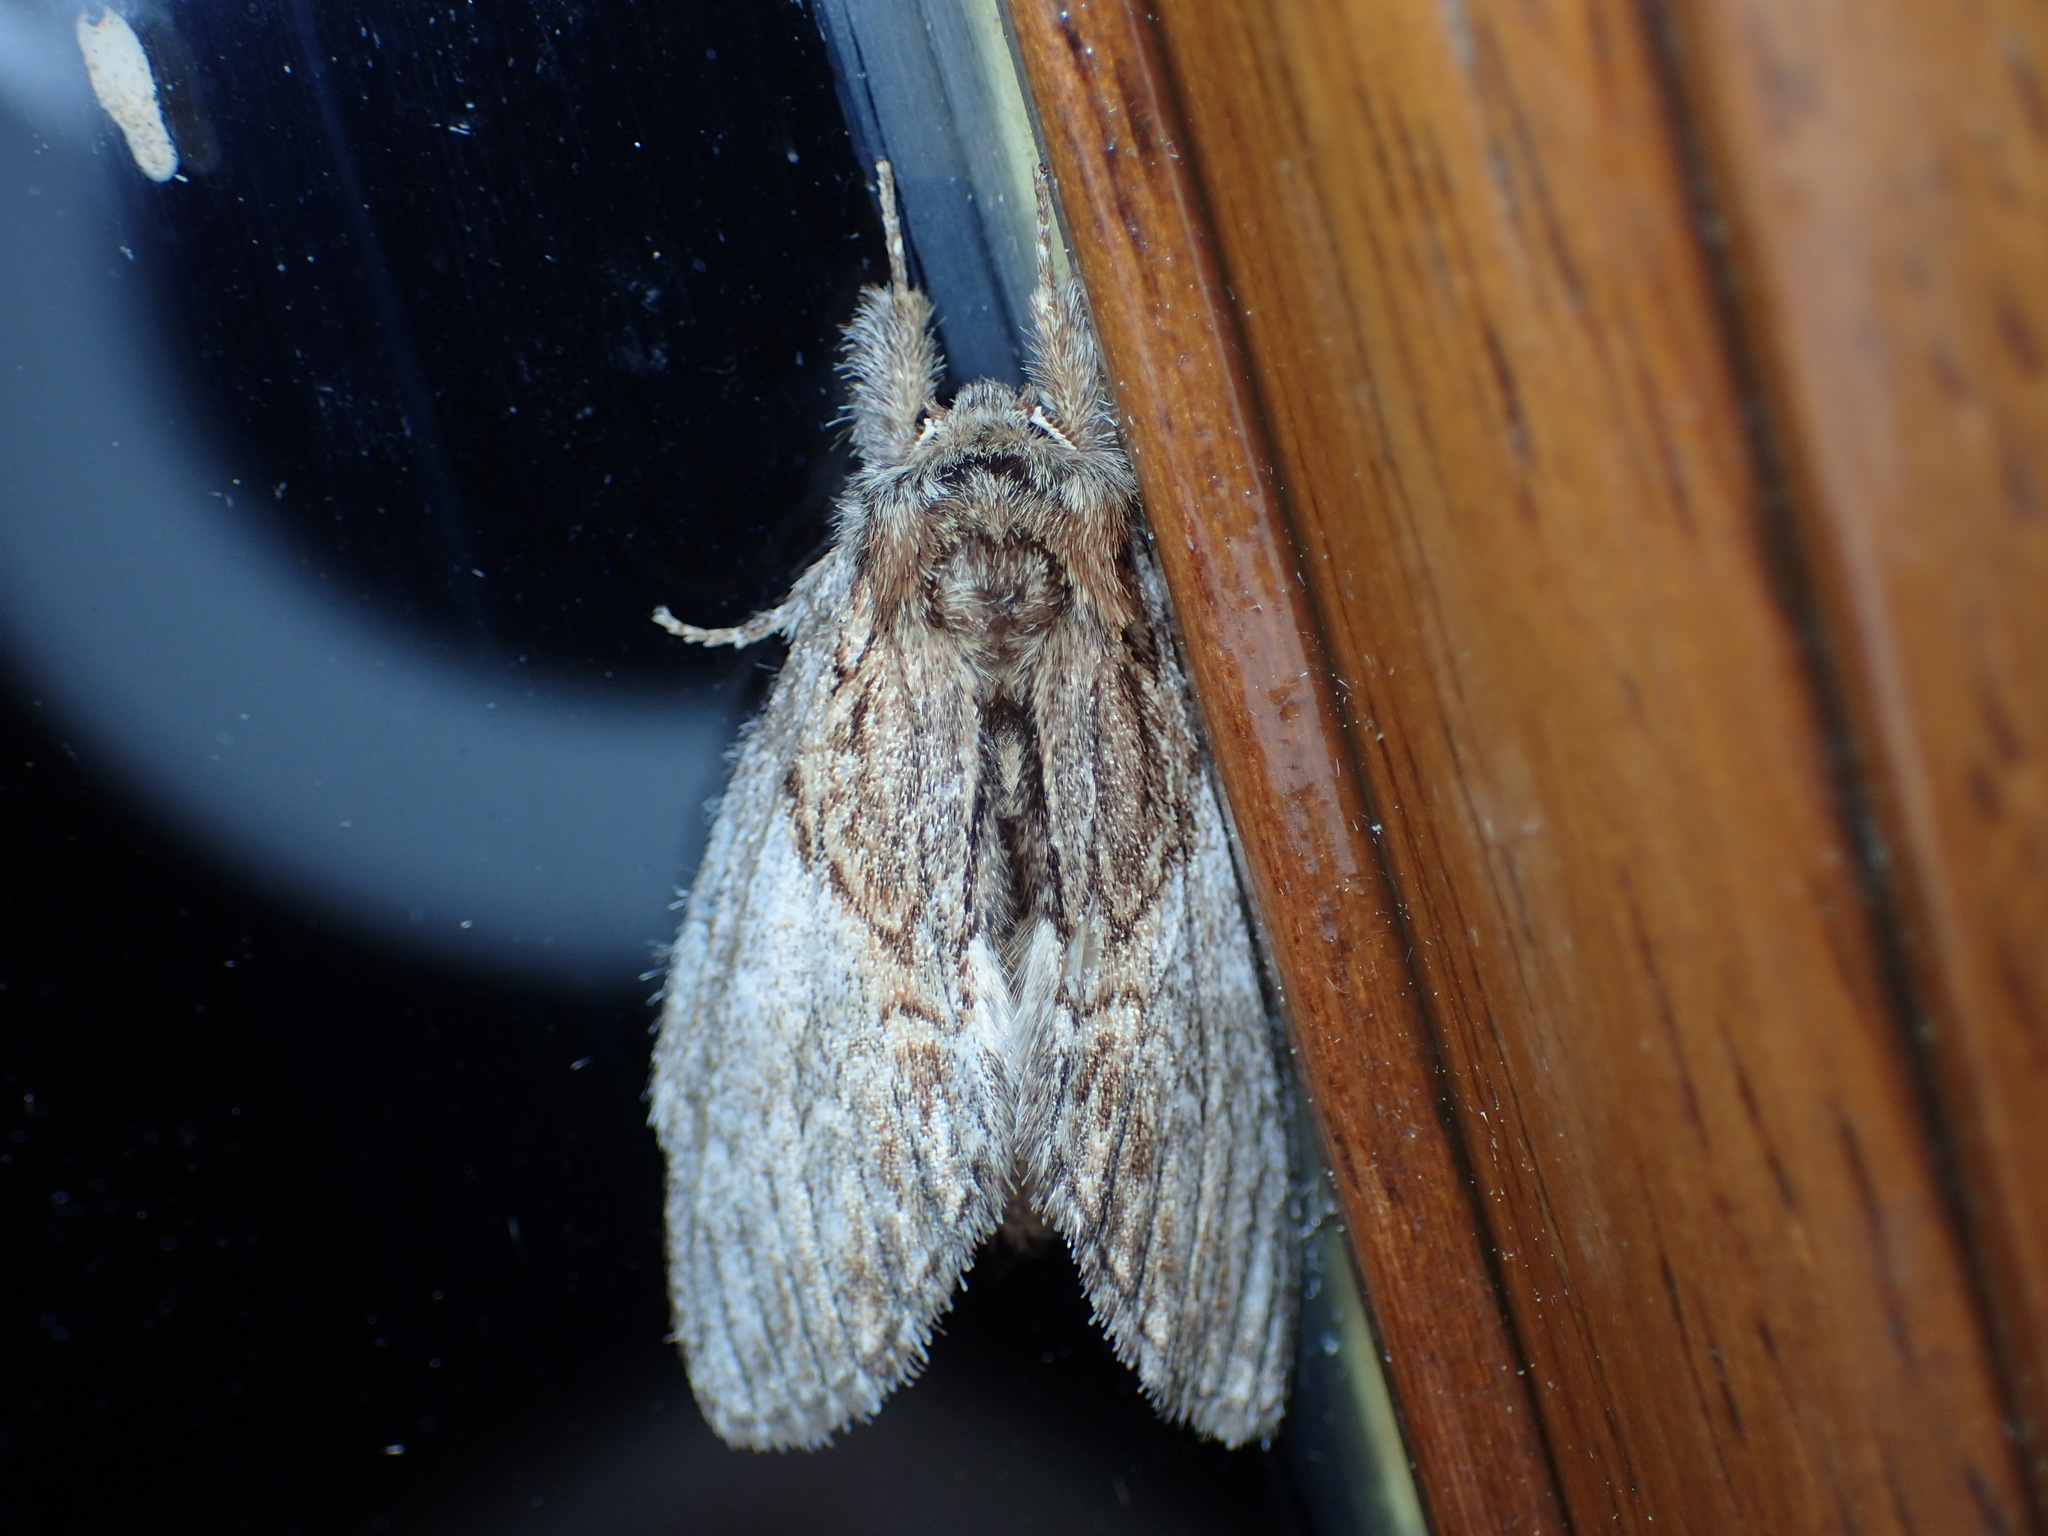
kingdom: Animalia
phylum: Arthropoda
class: Insecta
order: Lepidoptera
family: Notodontidae
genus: Peridea
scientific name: Peridea basitriens
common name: Oval-based prominent
